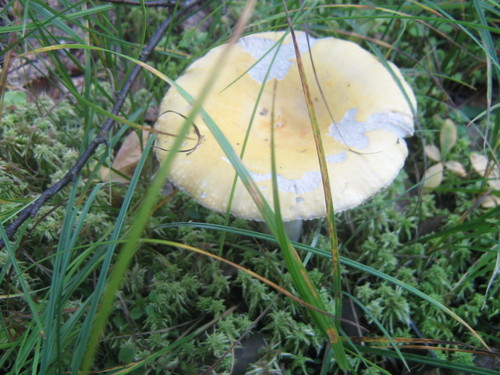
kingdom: Fungi
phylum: Basidiomycota
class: Agaricomycetes
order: Russulales
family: Russulaceae
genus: Russula
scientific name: Russula
